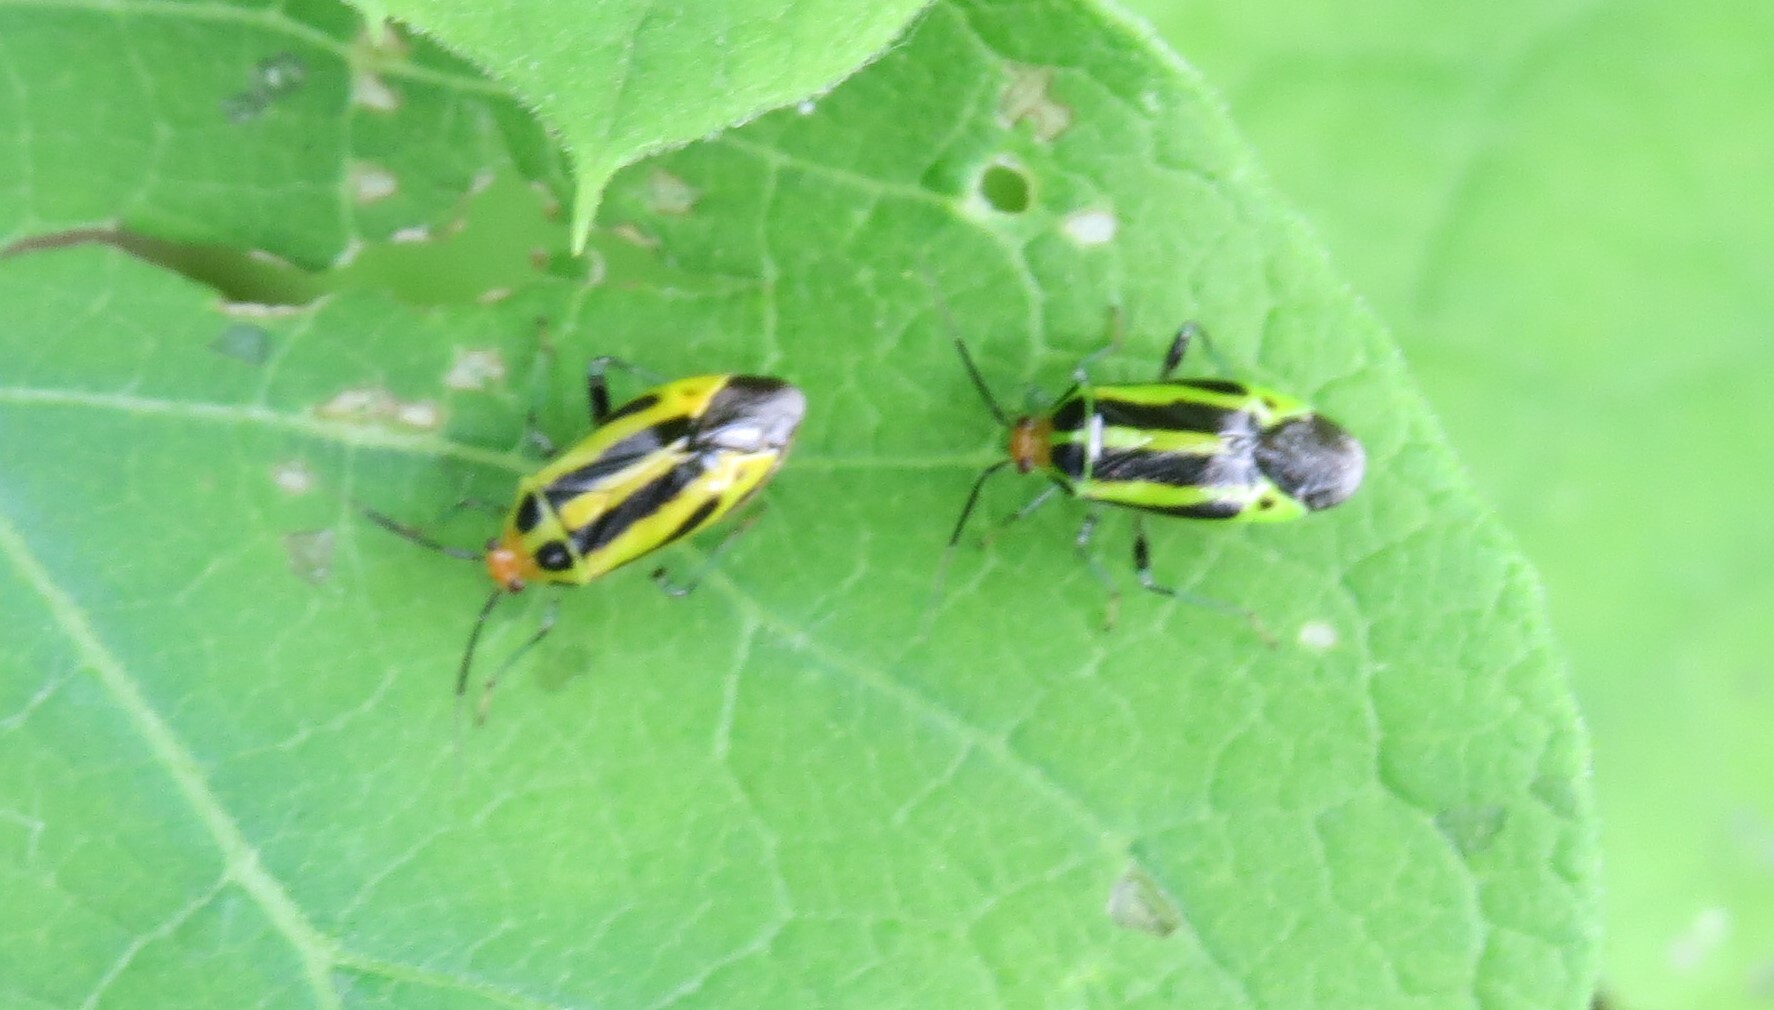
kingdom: Animalia
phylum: Arthropoda
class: Insecta
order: Hemiptera
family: Miridae
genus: Poecilocapsus
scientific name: Poecilocapsus lineatus
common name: Four-lined plant bug
